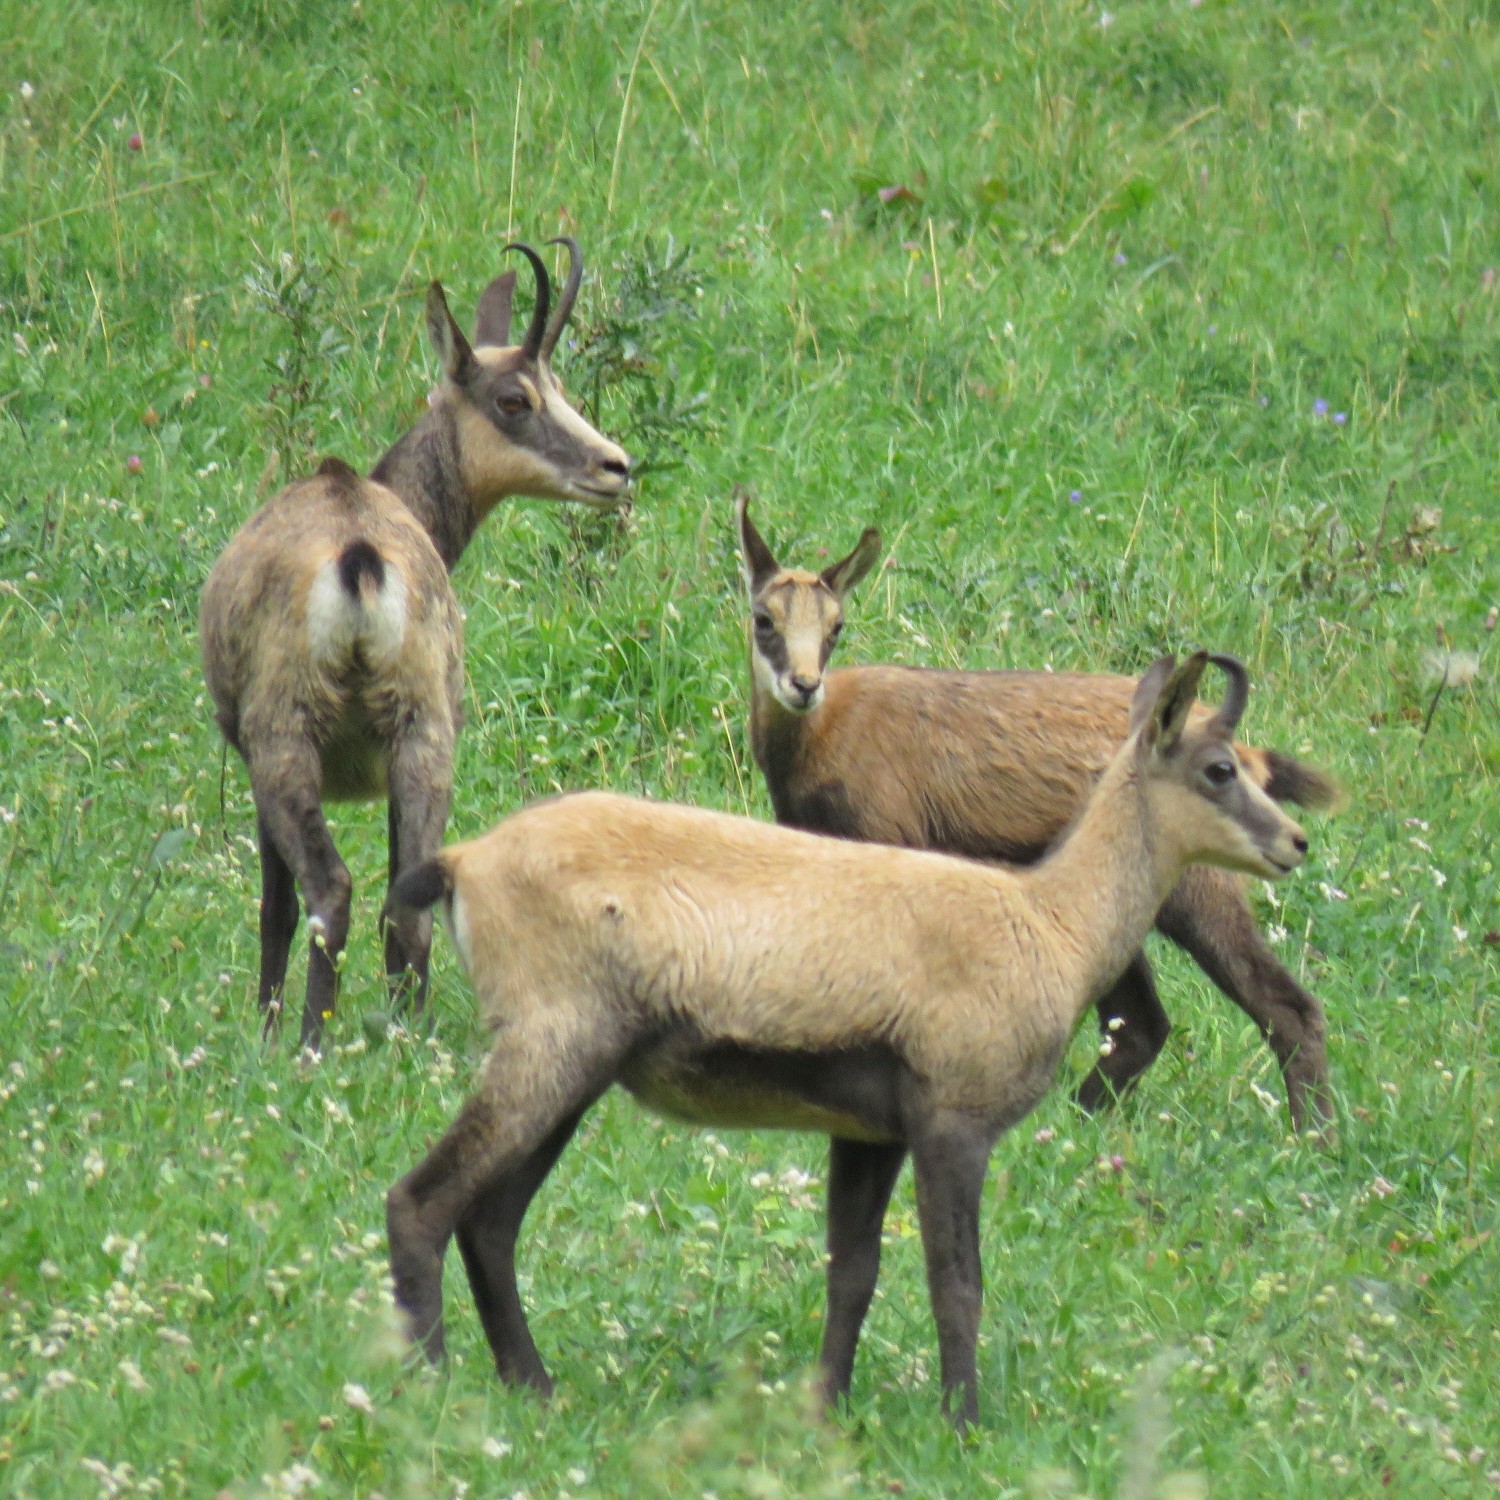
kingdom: Animalia
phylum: Chordata
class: Mammalia
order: Artiodactyla
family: Bovidae
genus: Rupicapra
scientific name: Rupicapra rupicapra
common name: Chamois
